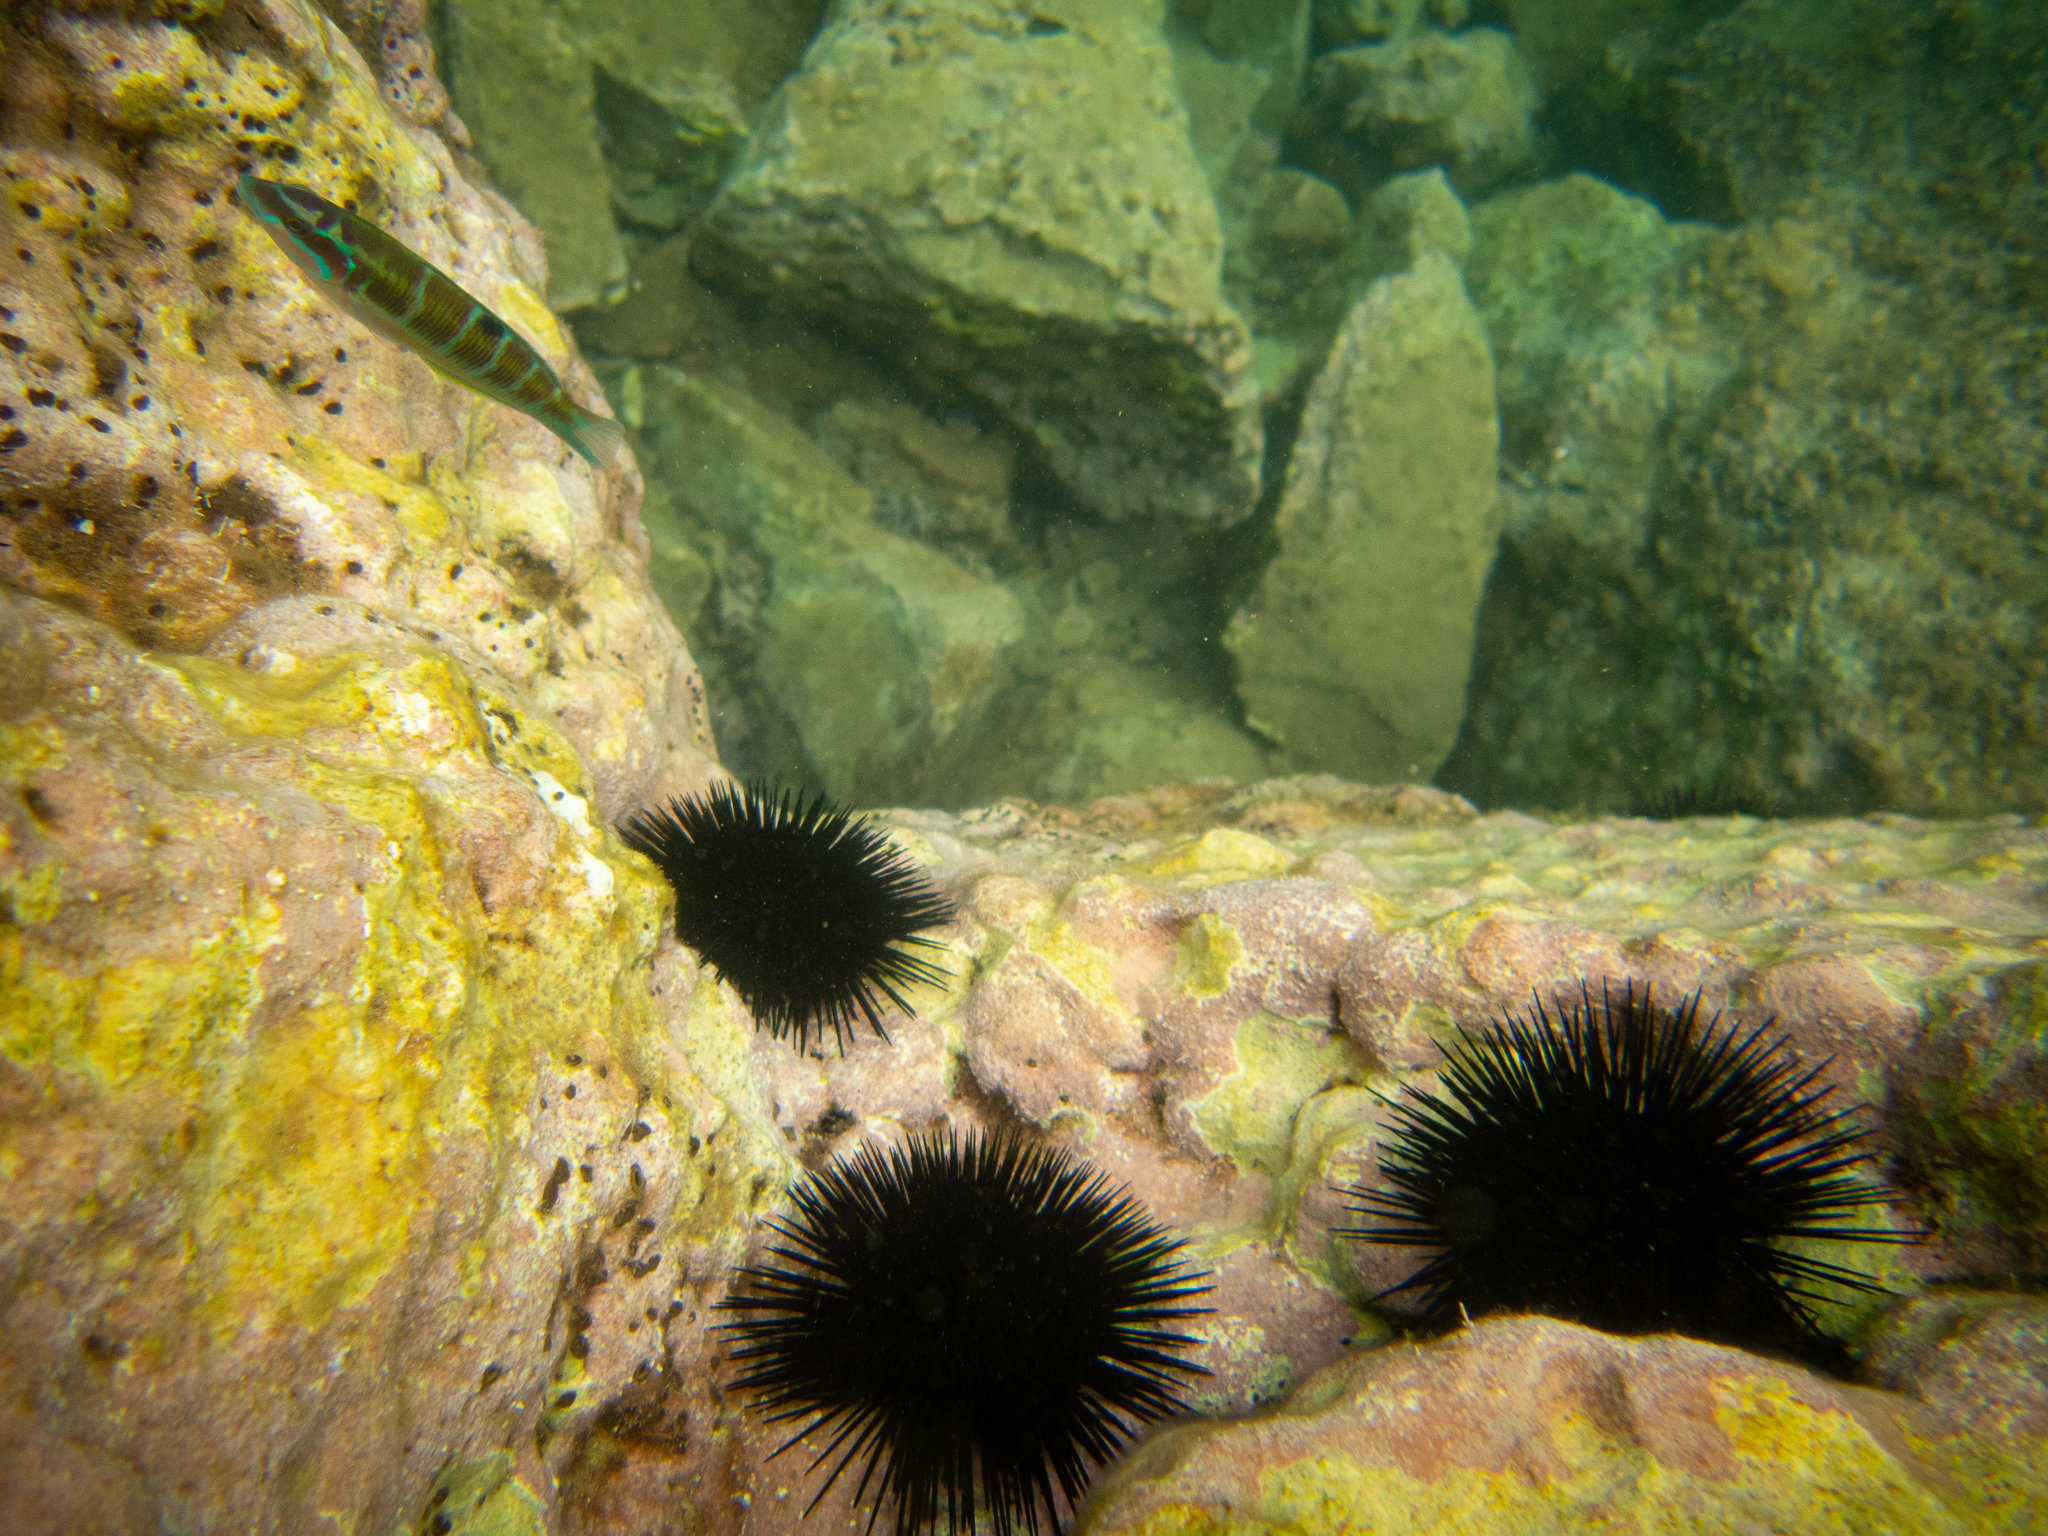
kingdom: Animalia
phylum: Echinodermata
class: Echinoidea
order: Arbacioida
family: Arbaciidae
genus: Arbacia
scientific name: Arbacia lixula
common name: Black sea urchin
